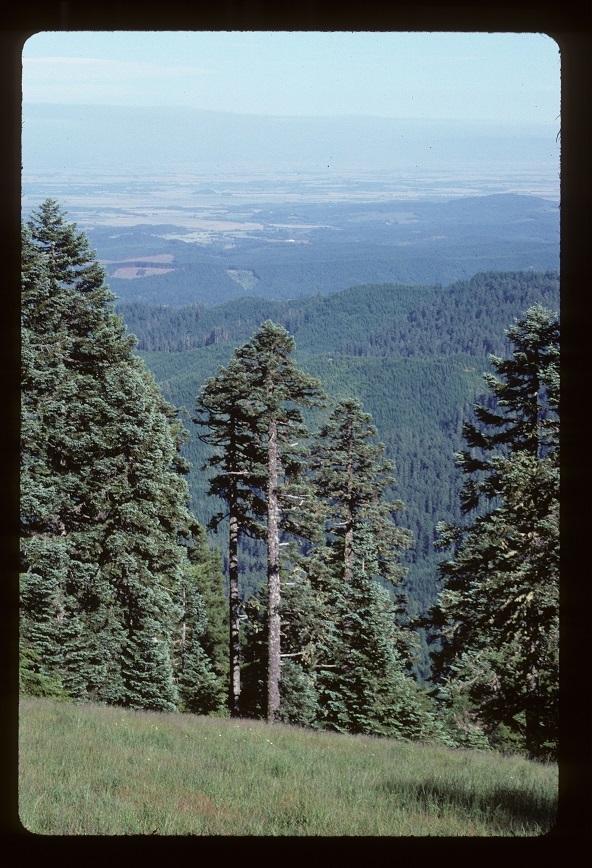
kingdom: Plantae
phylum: Tracheophyta
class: Pinopsida
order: Pinales
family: Pinaceae
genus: Abies
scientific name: Abies procera
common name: Noble fir
